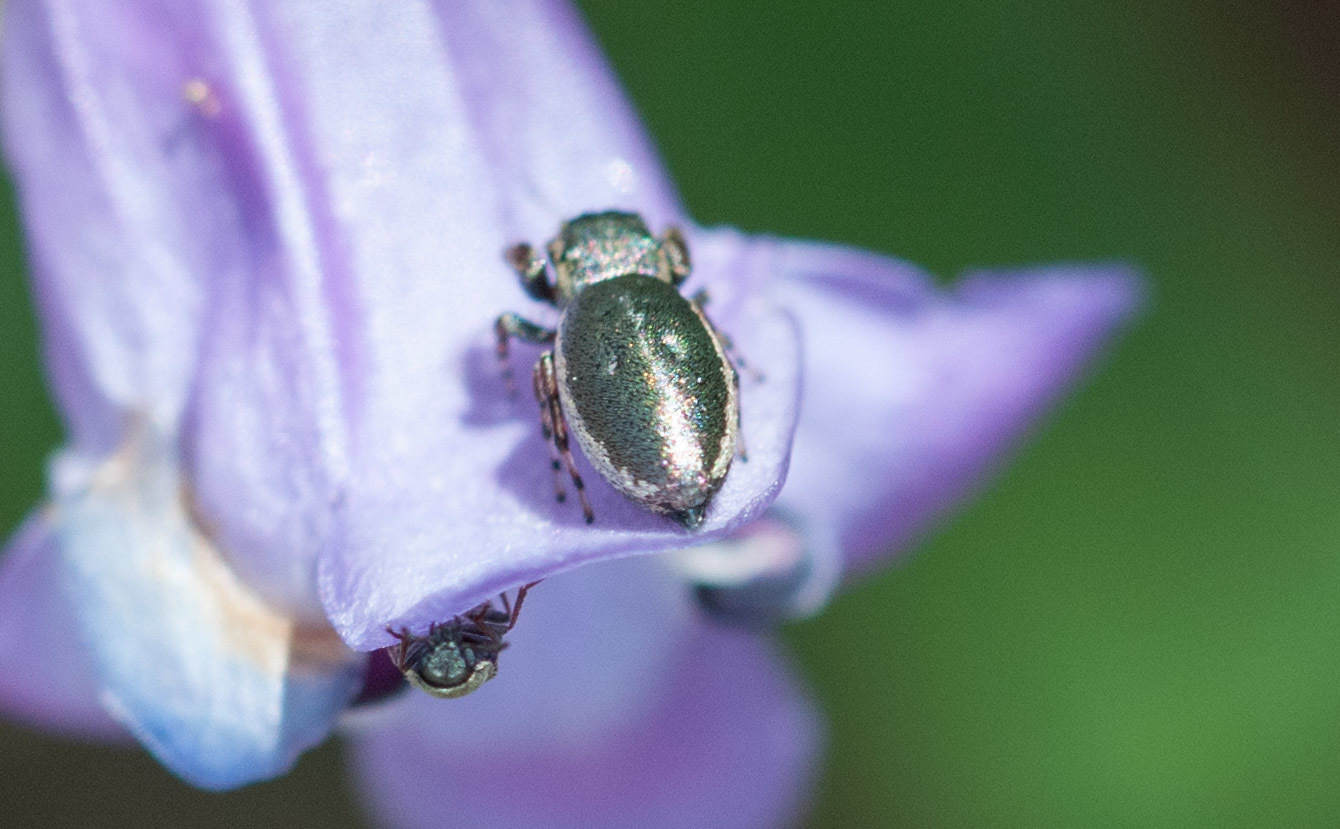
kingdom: Animalia
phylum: Arthropoda
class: Arachnida
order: Araneae
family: Salticidae
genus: Sassacus
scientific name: Sassacus papenhoei
